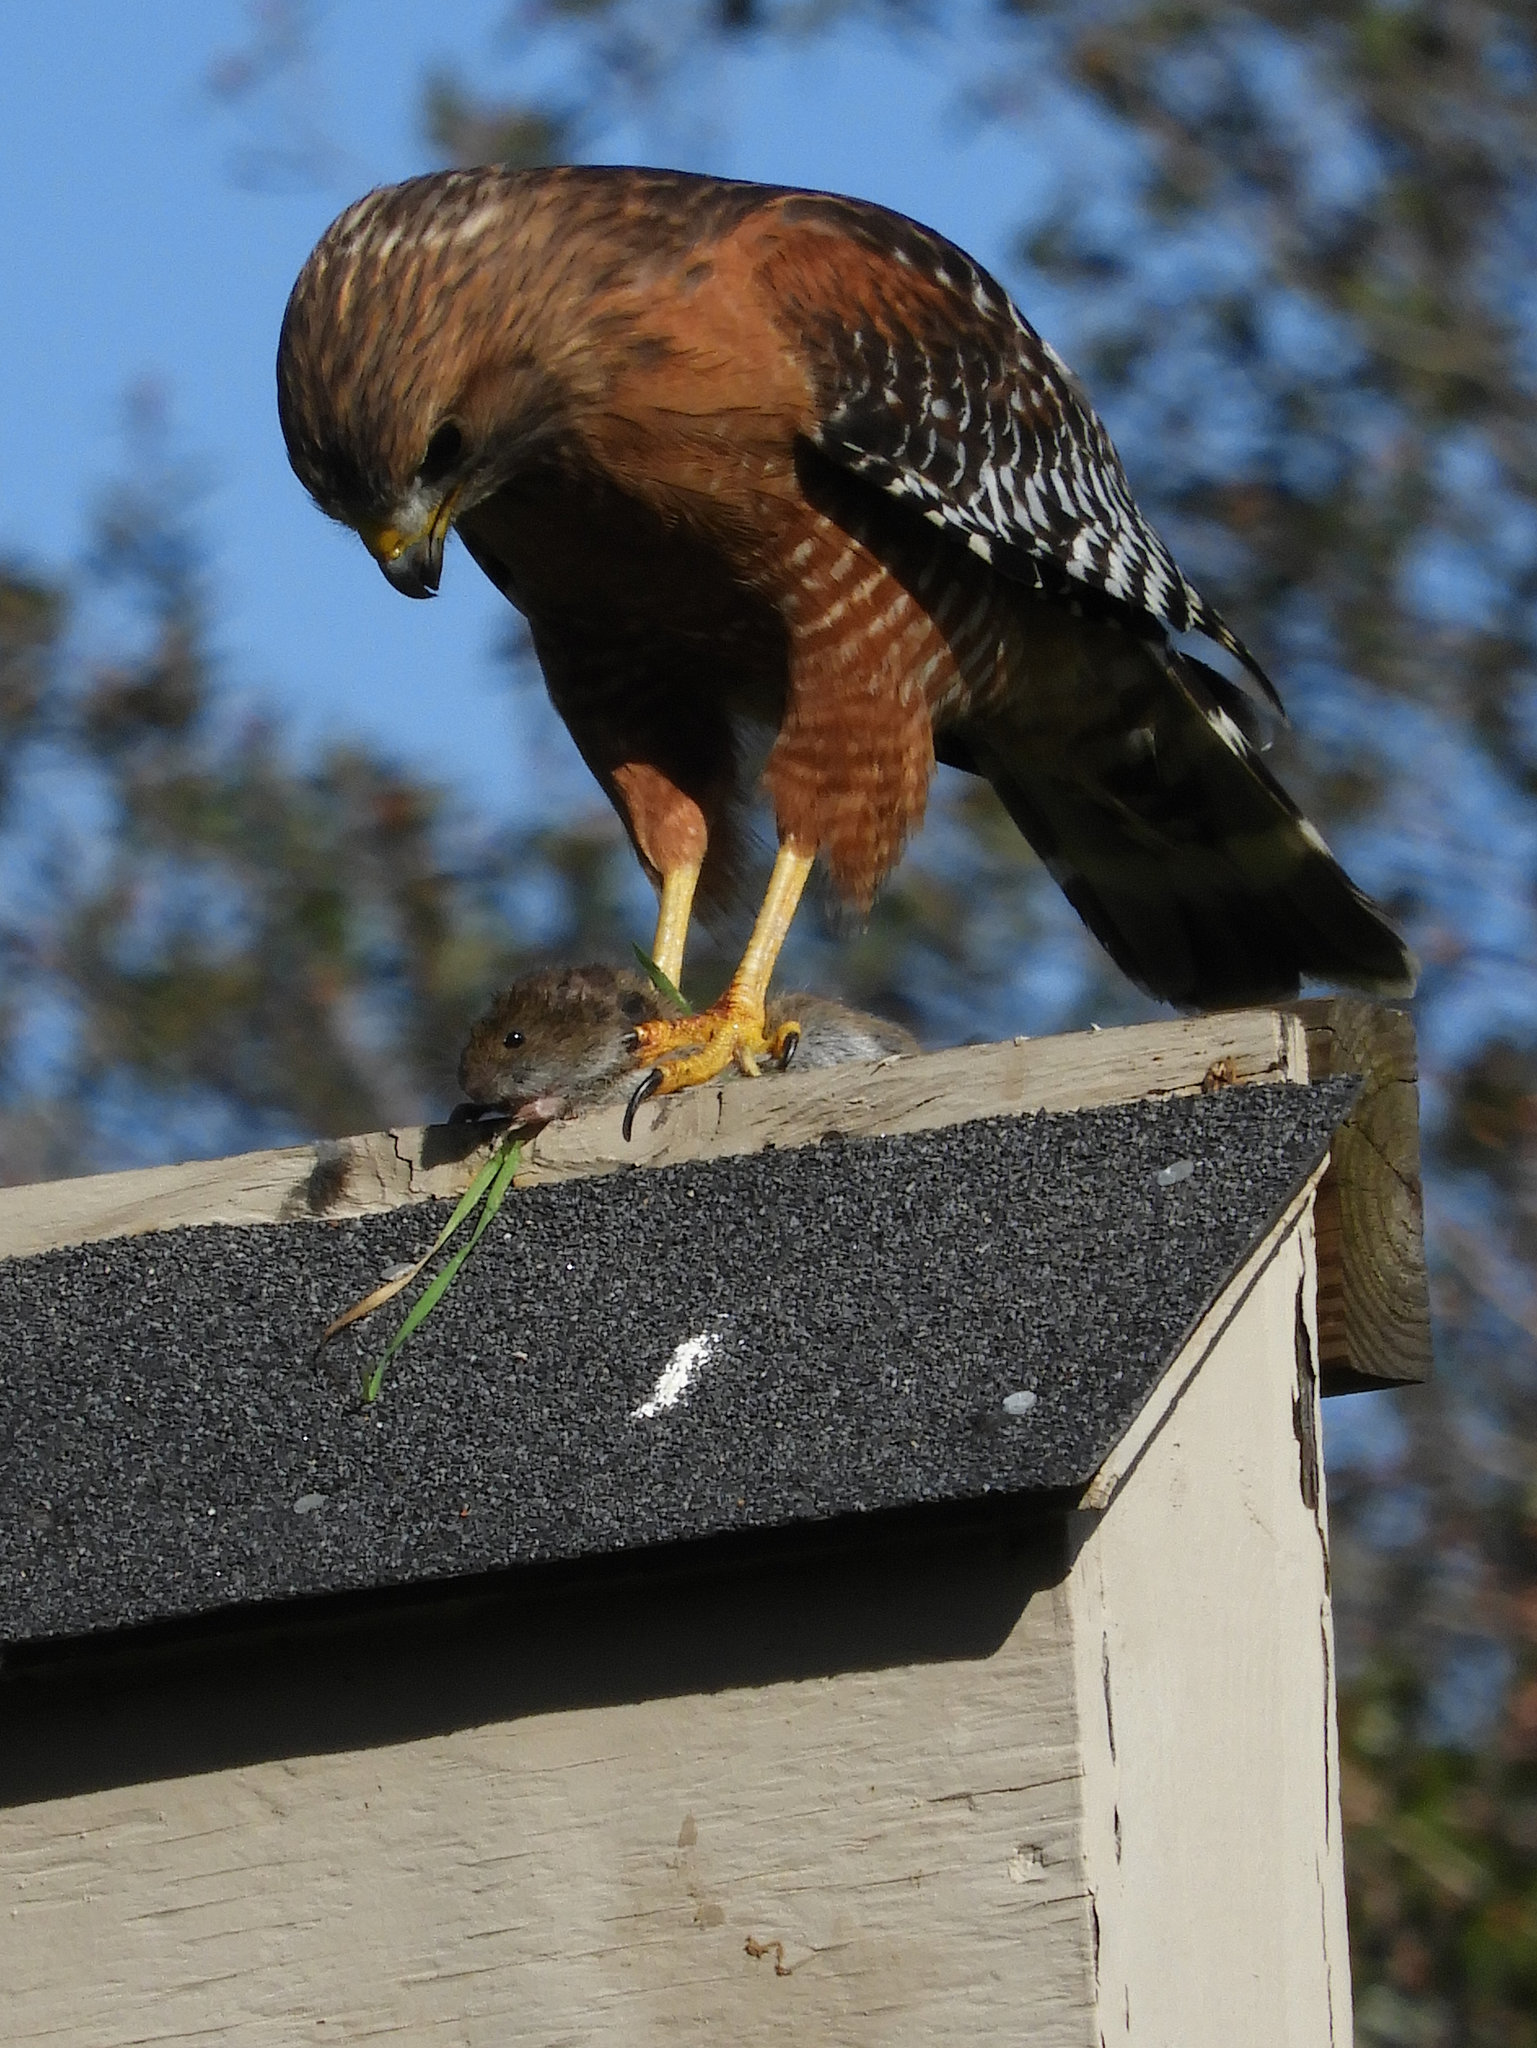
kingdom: Animalia
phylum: Chordata
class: Aves
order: Accipitriformes
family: Accipitridae
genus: Buteo
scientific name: Buteo lineatus
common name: Red-shouldered hawk
